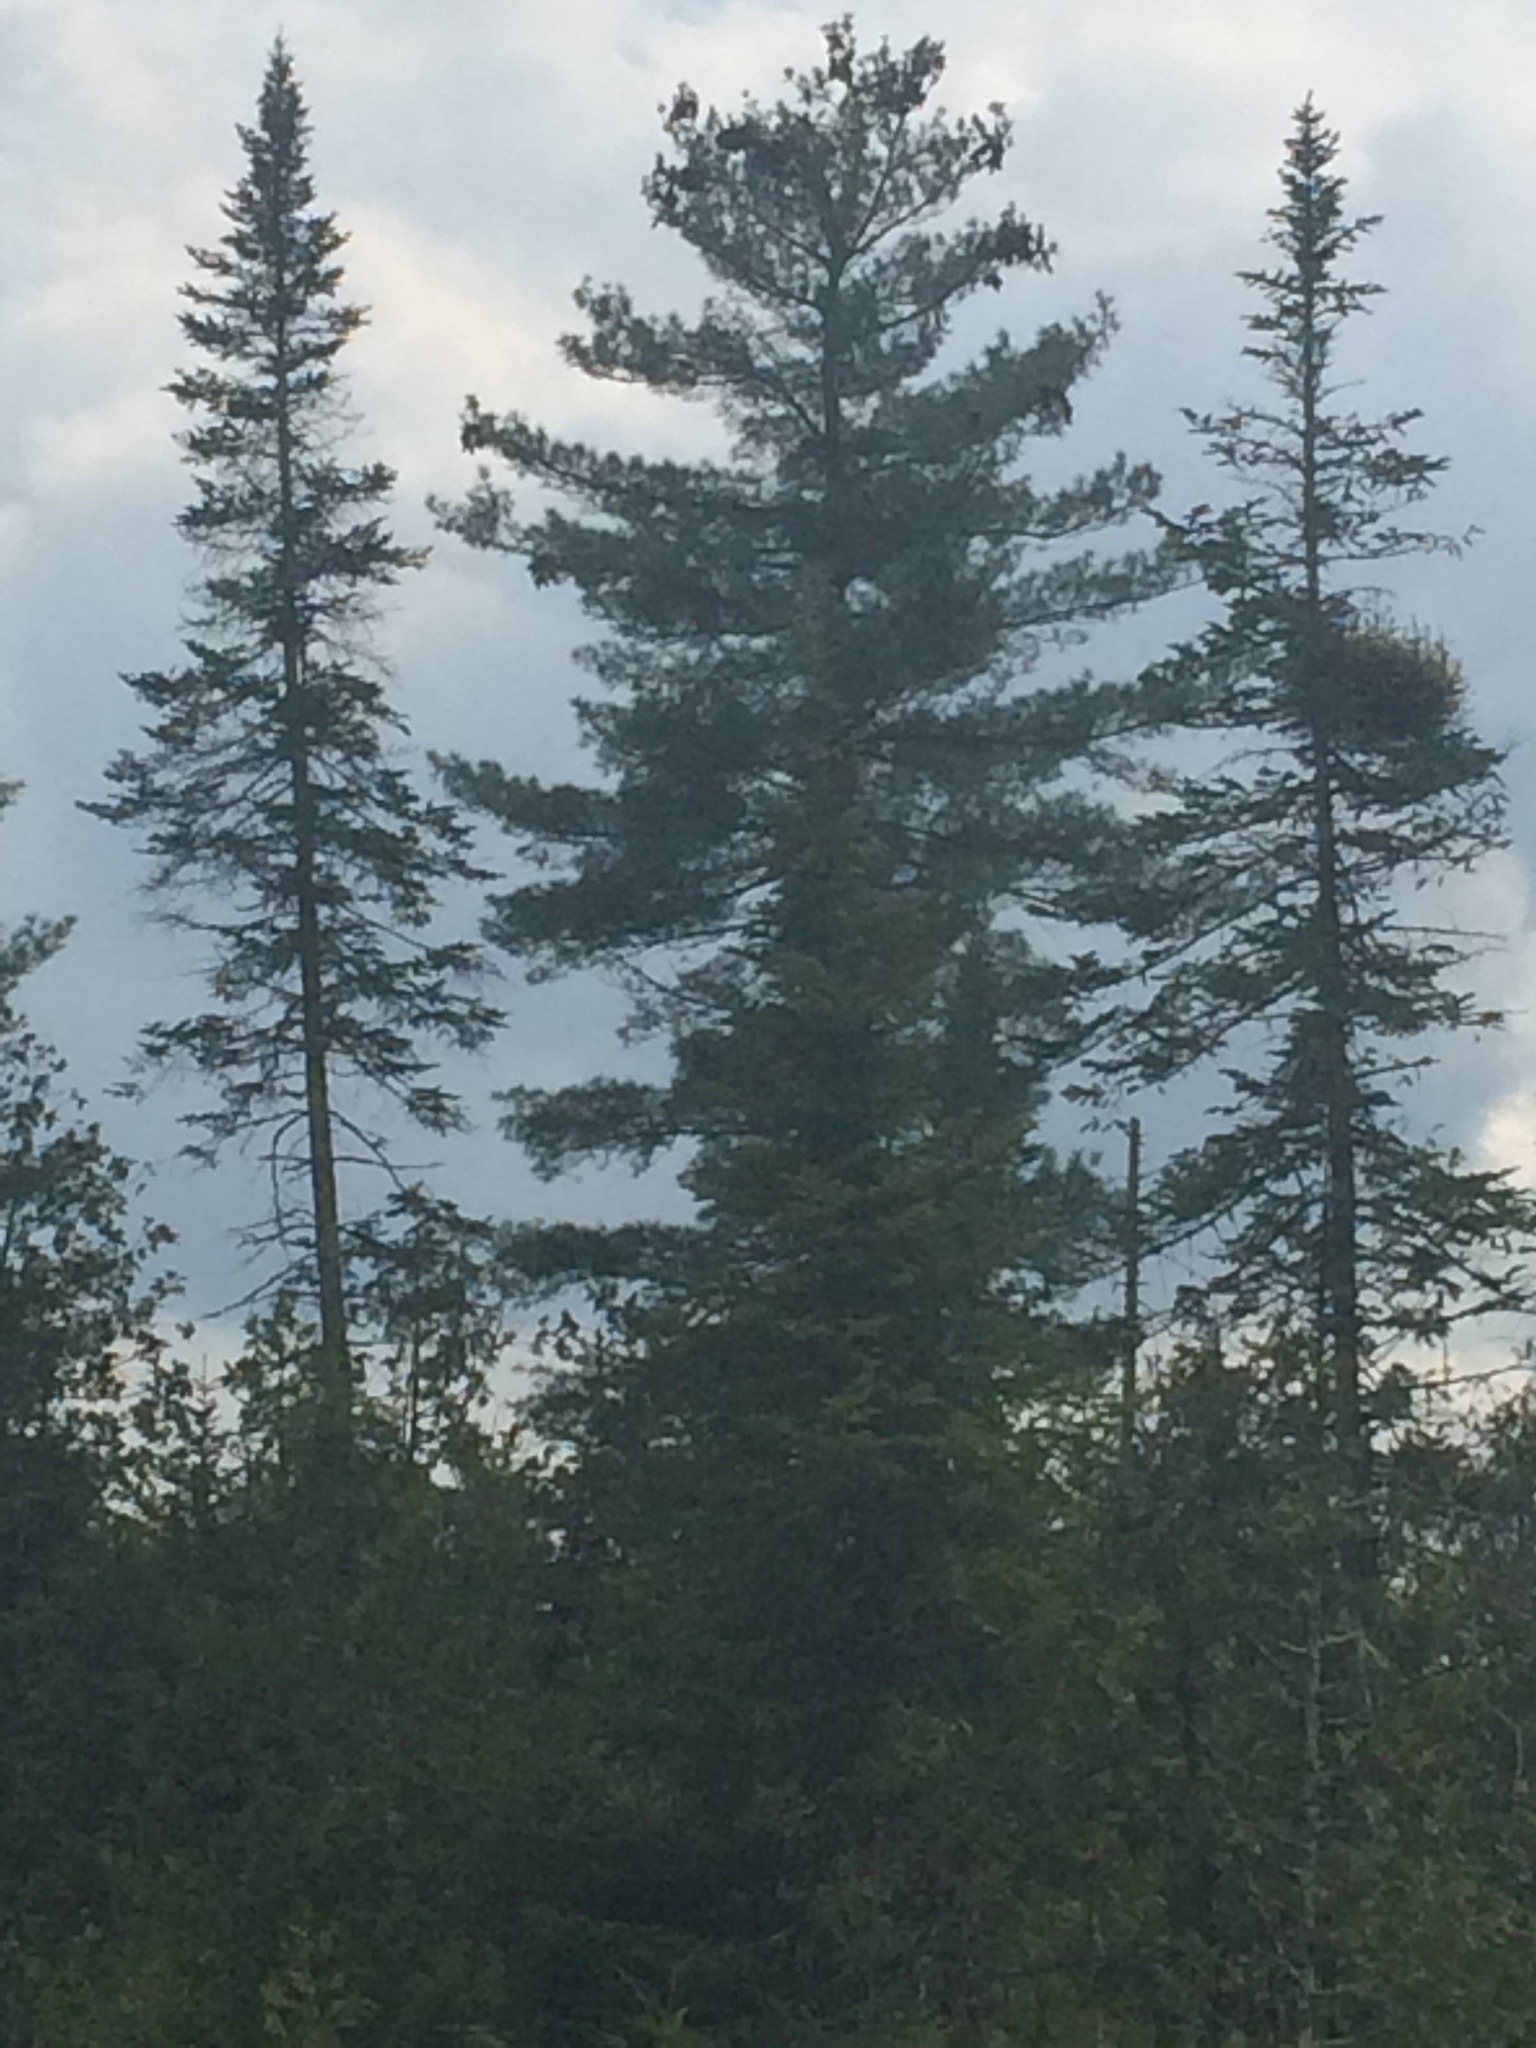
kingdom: Plantae
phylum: Tracheophyta
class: Pinopsida
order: Pinales
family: Pinaceae
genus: Pinus
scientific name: Pinus strobus
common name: Weymouth pine
